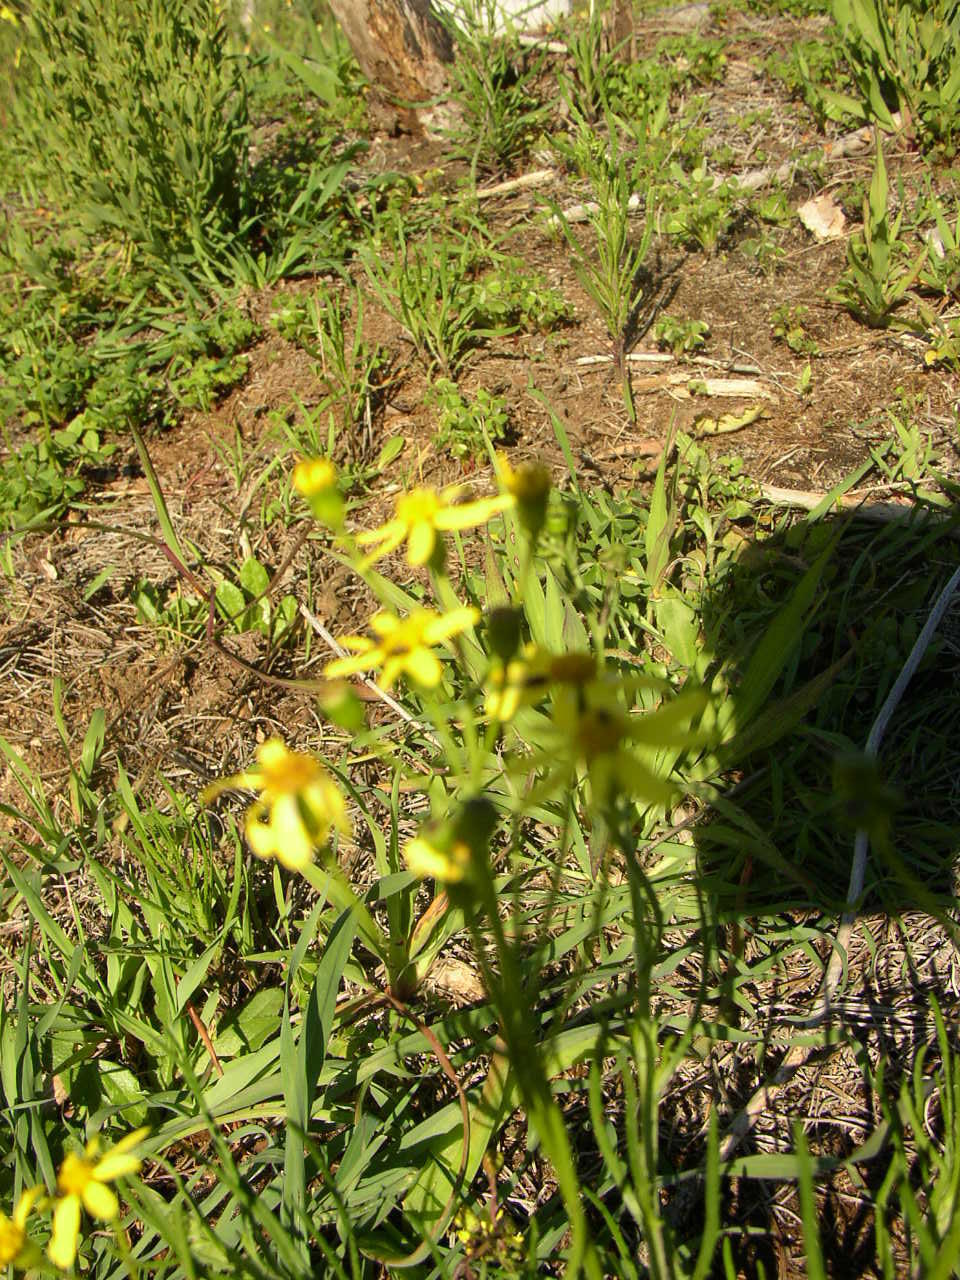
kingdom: Plantae
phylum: Tracheophyta
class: Magnoliopsida
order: Asterales
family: Asteraceae
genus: Senecio
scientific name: Senecio burchellii
